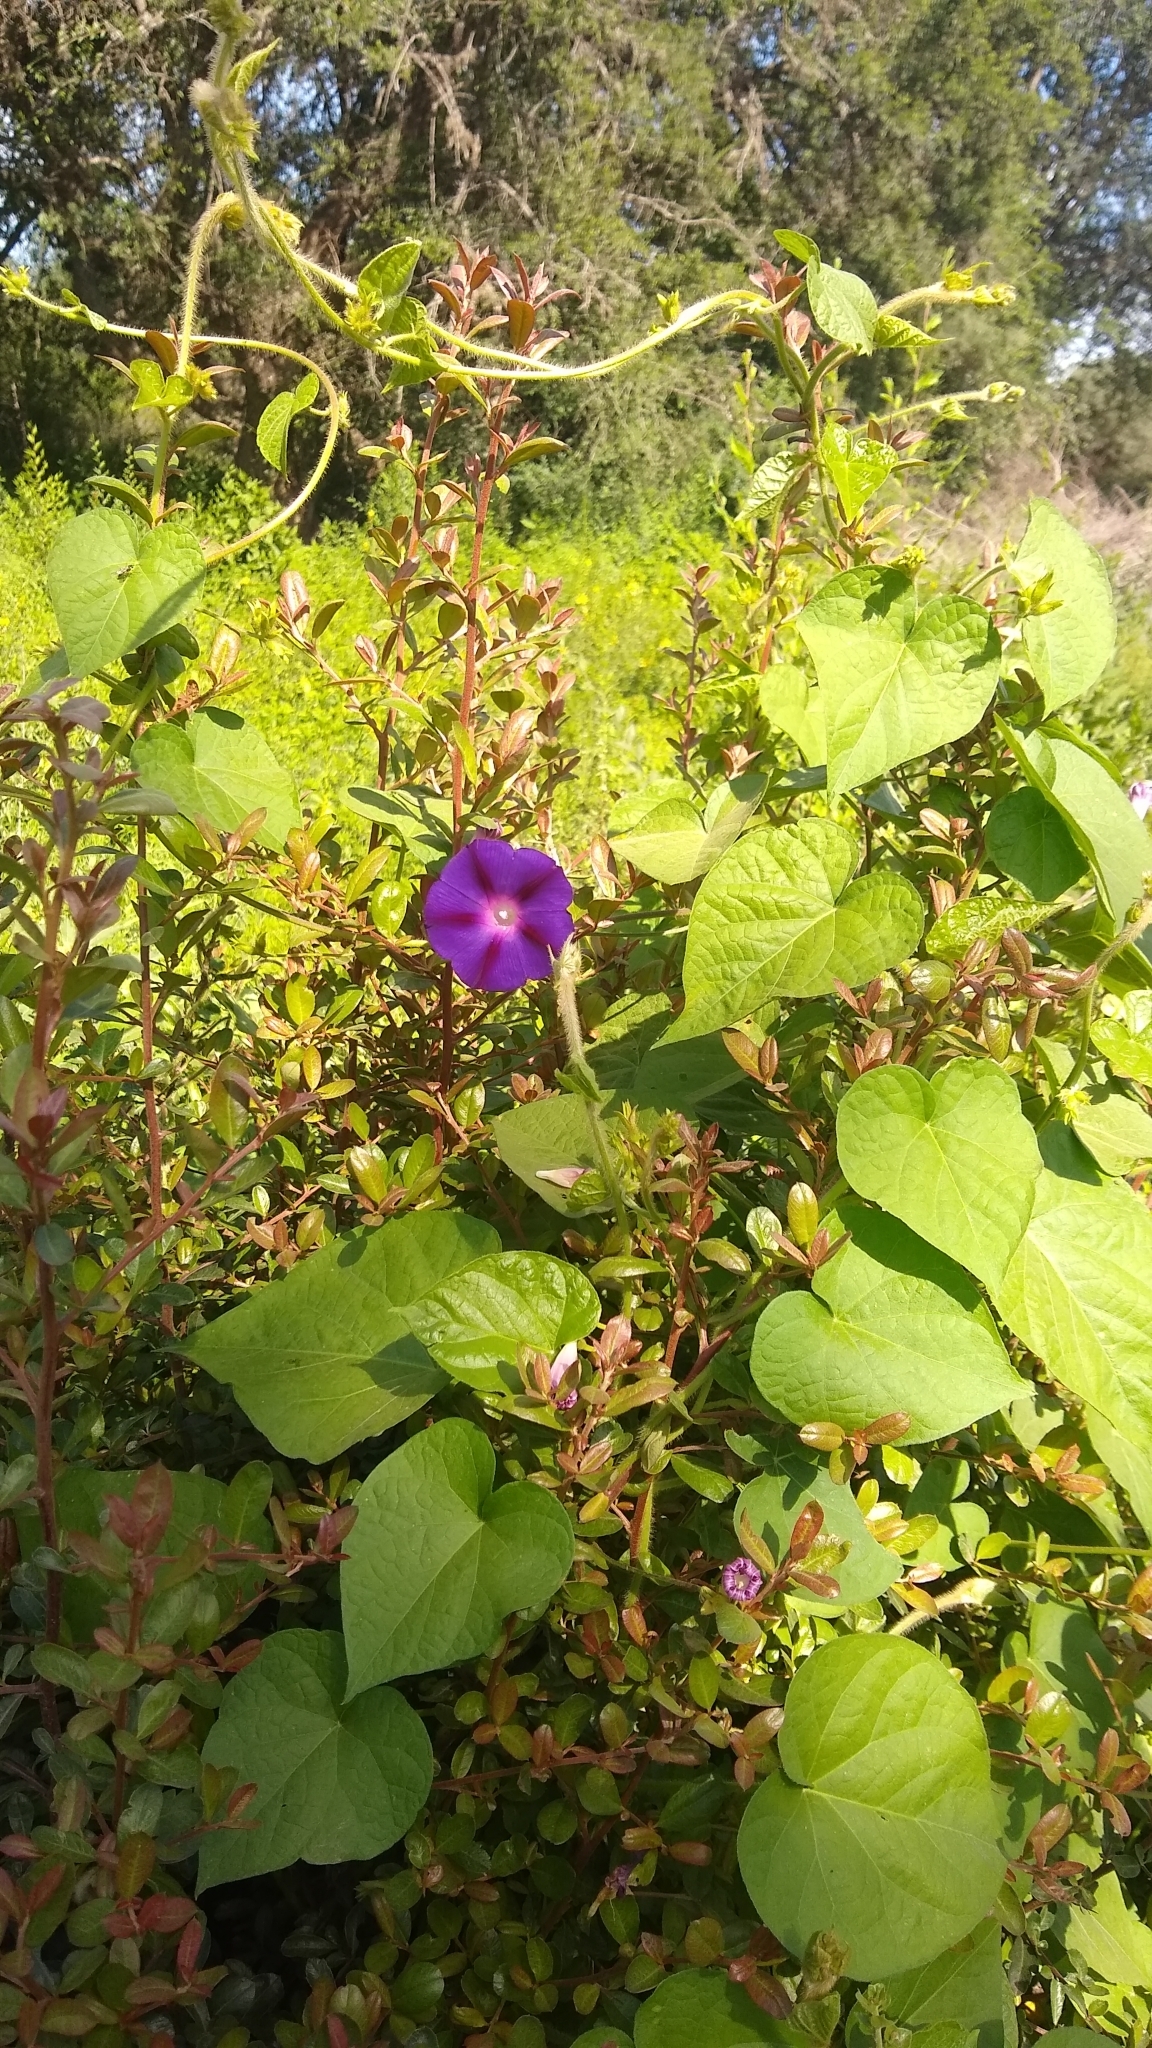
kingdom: Plantae
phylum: Tracheophyta
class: Magnoliopsida
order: Solanales
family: Convolvulaceae
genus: Ipomoea
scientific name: Ipomoea purpurea
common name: Common morning-glory
